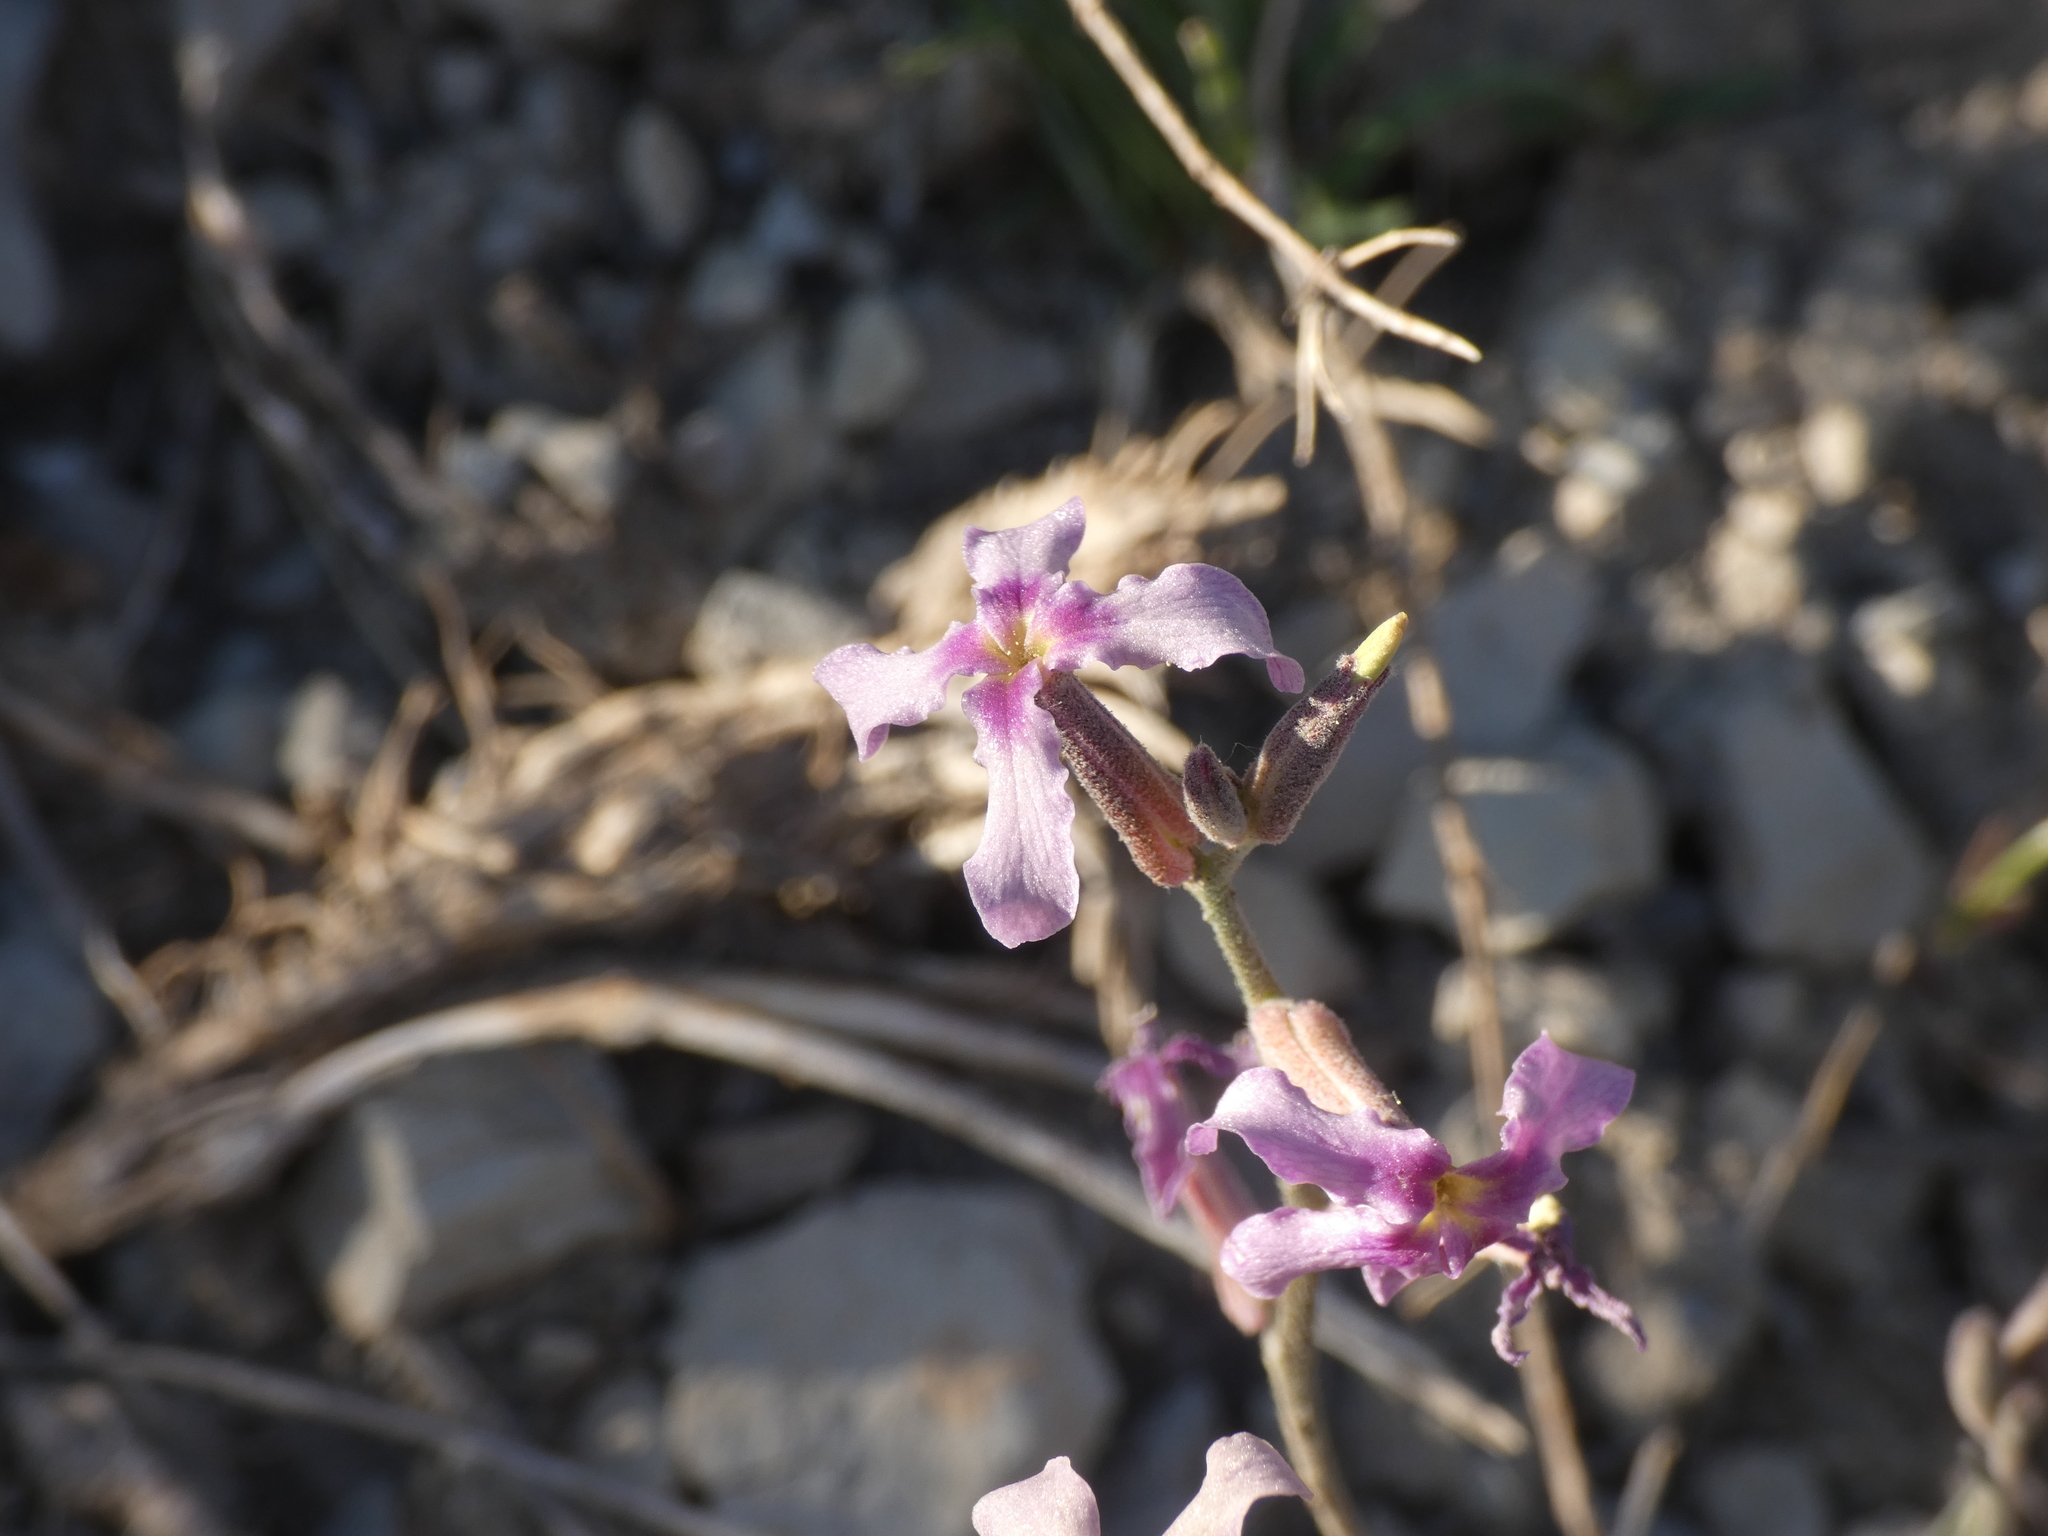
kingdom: Plantae
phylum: Tracheophyta
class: Magnoliopsida
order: Brassicales
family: Brassicaceae
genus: Matthiola
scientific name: Matthiola fruticulosa
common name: Sad stock
